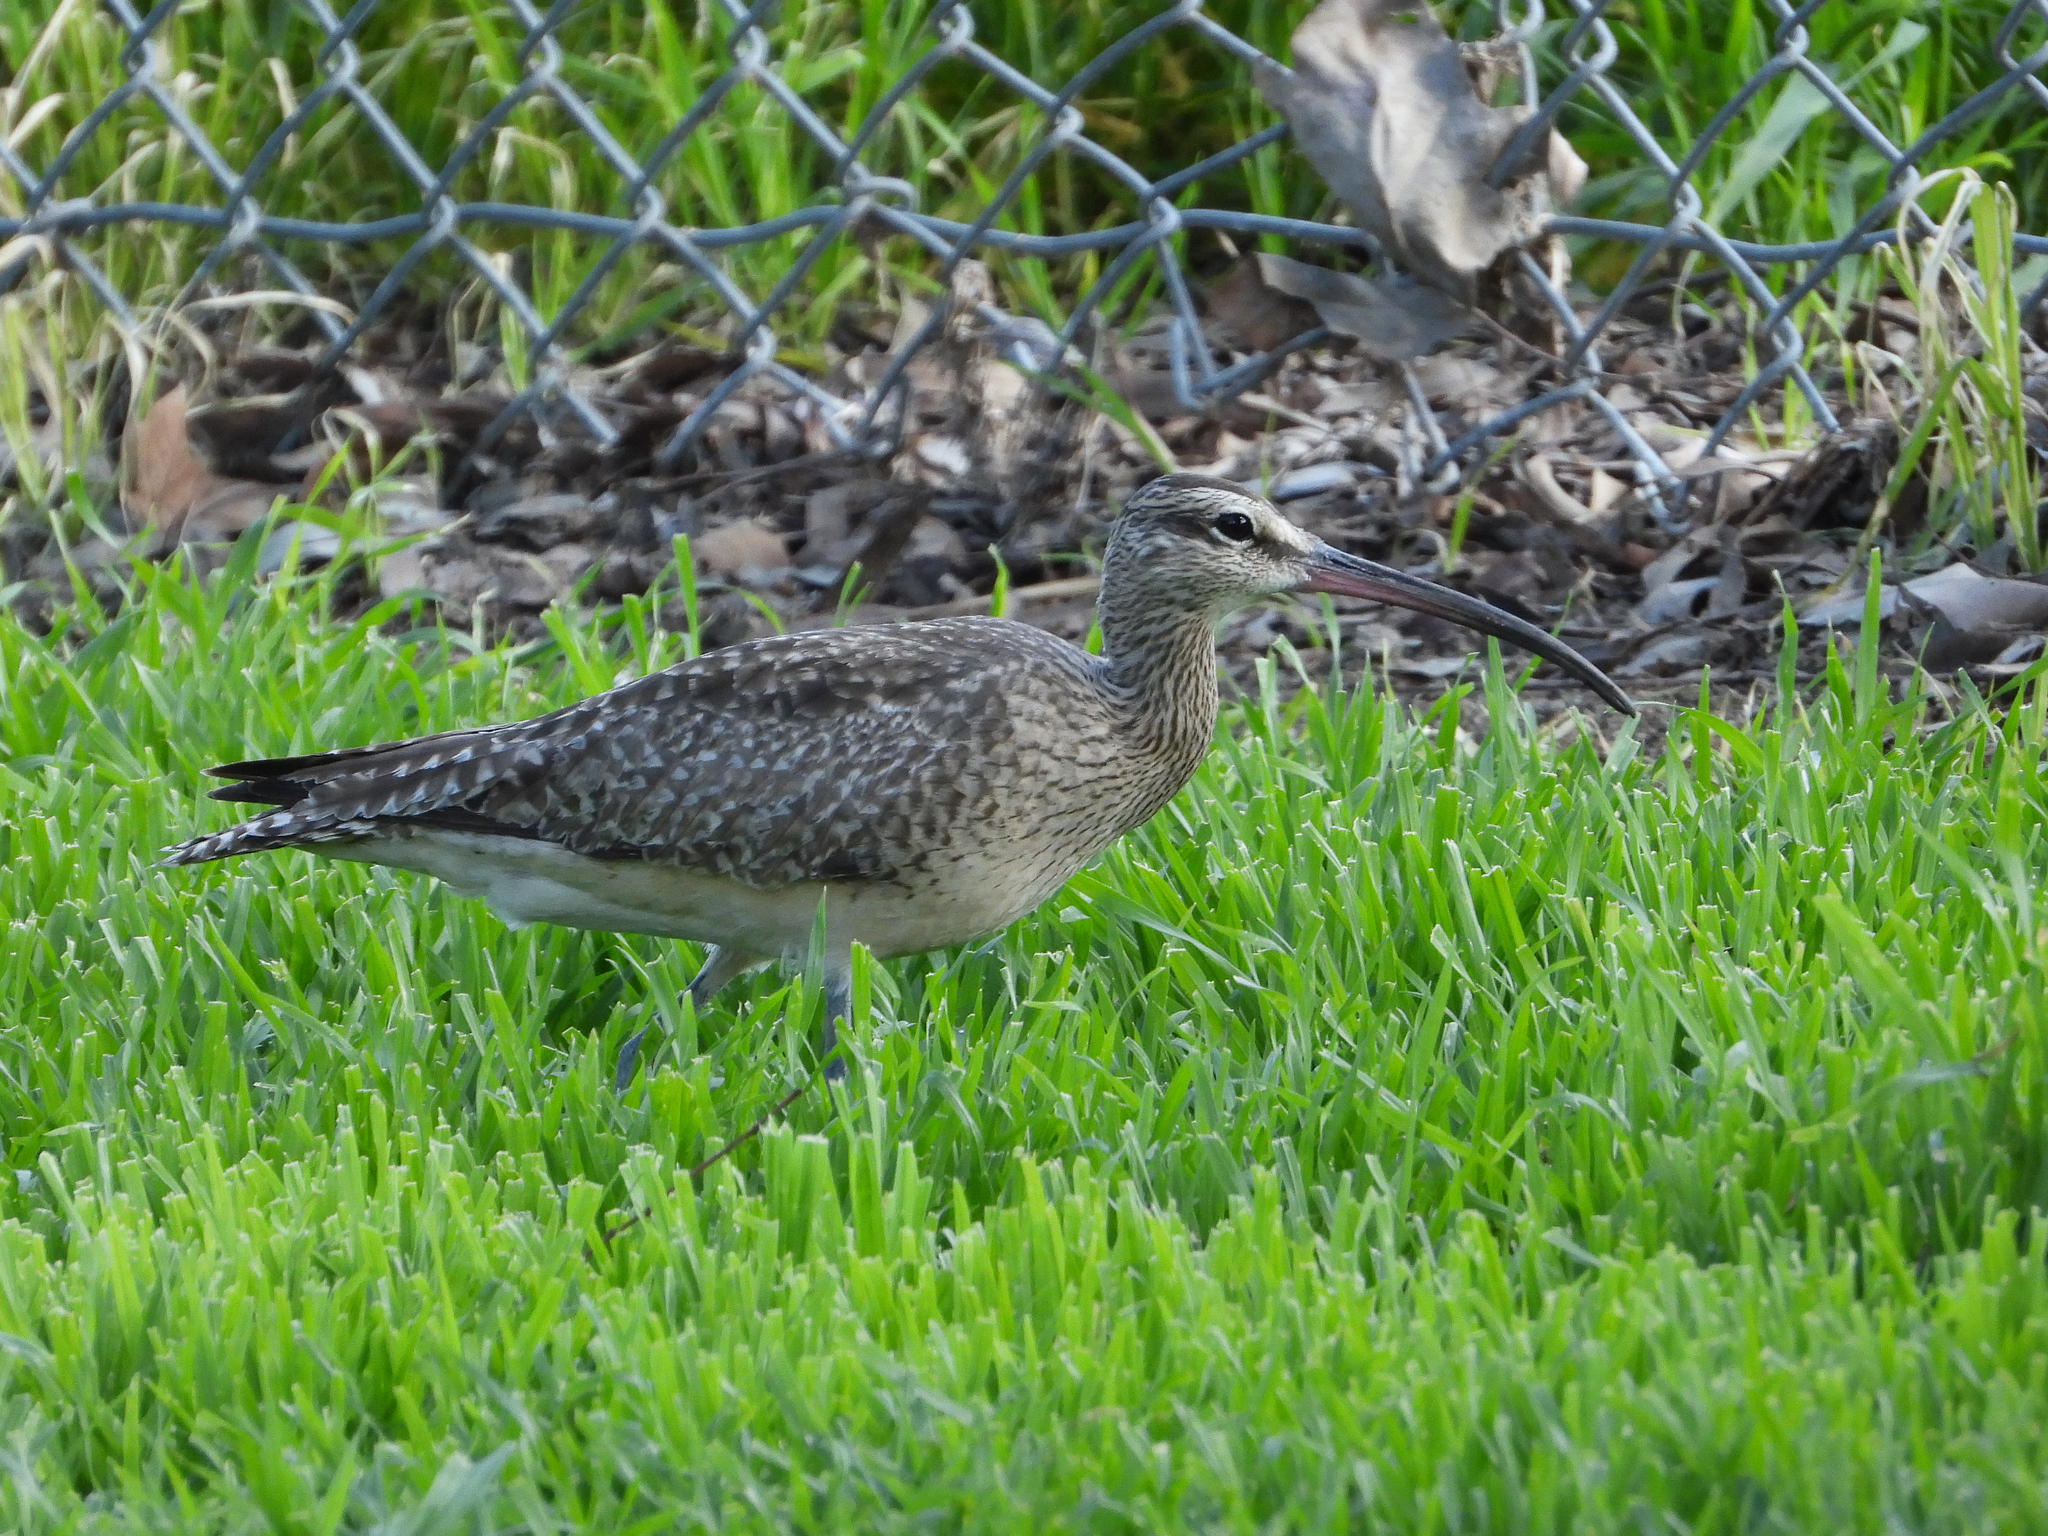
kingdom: Animalia
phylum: Chordata
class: Aves
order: Charadriiformes
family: Scolopacidae
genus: Numenius
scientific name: Numenius phaeopus
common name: Whimbrel
